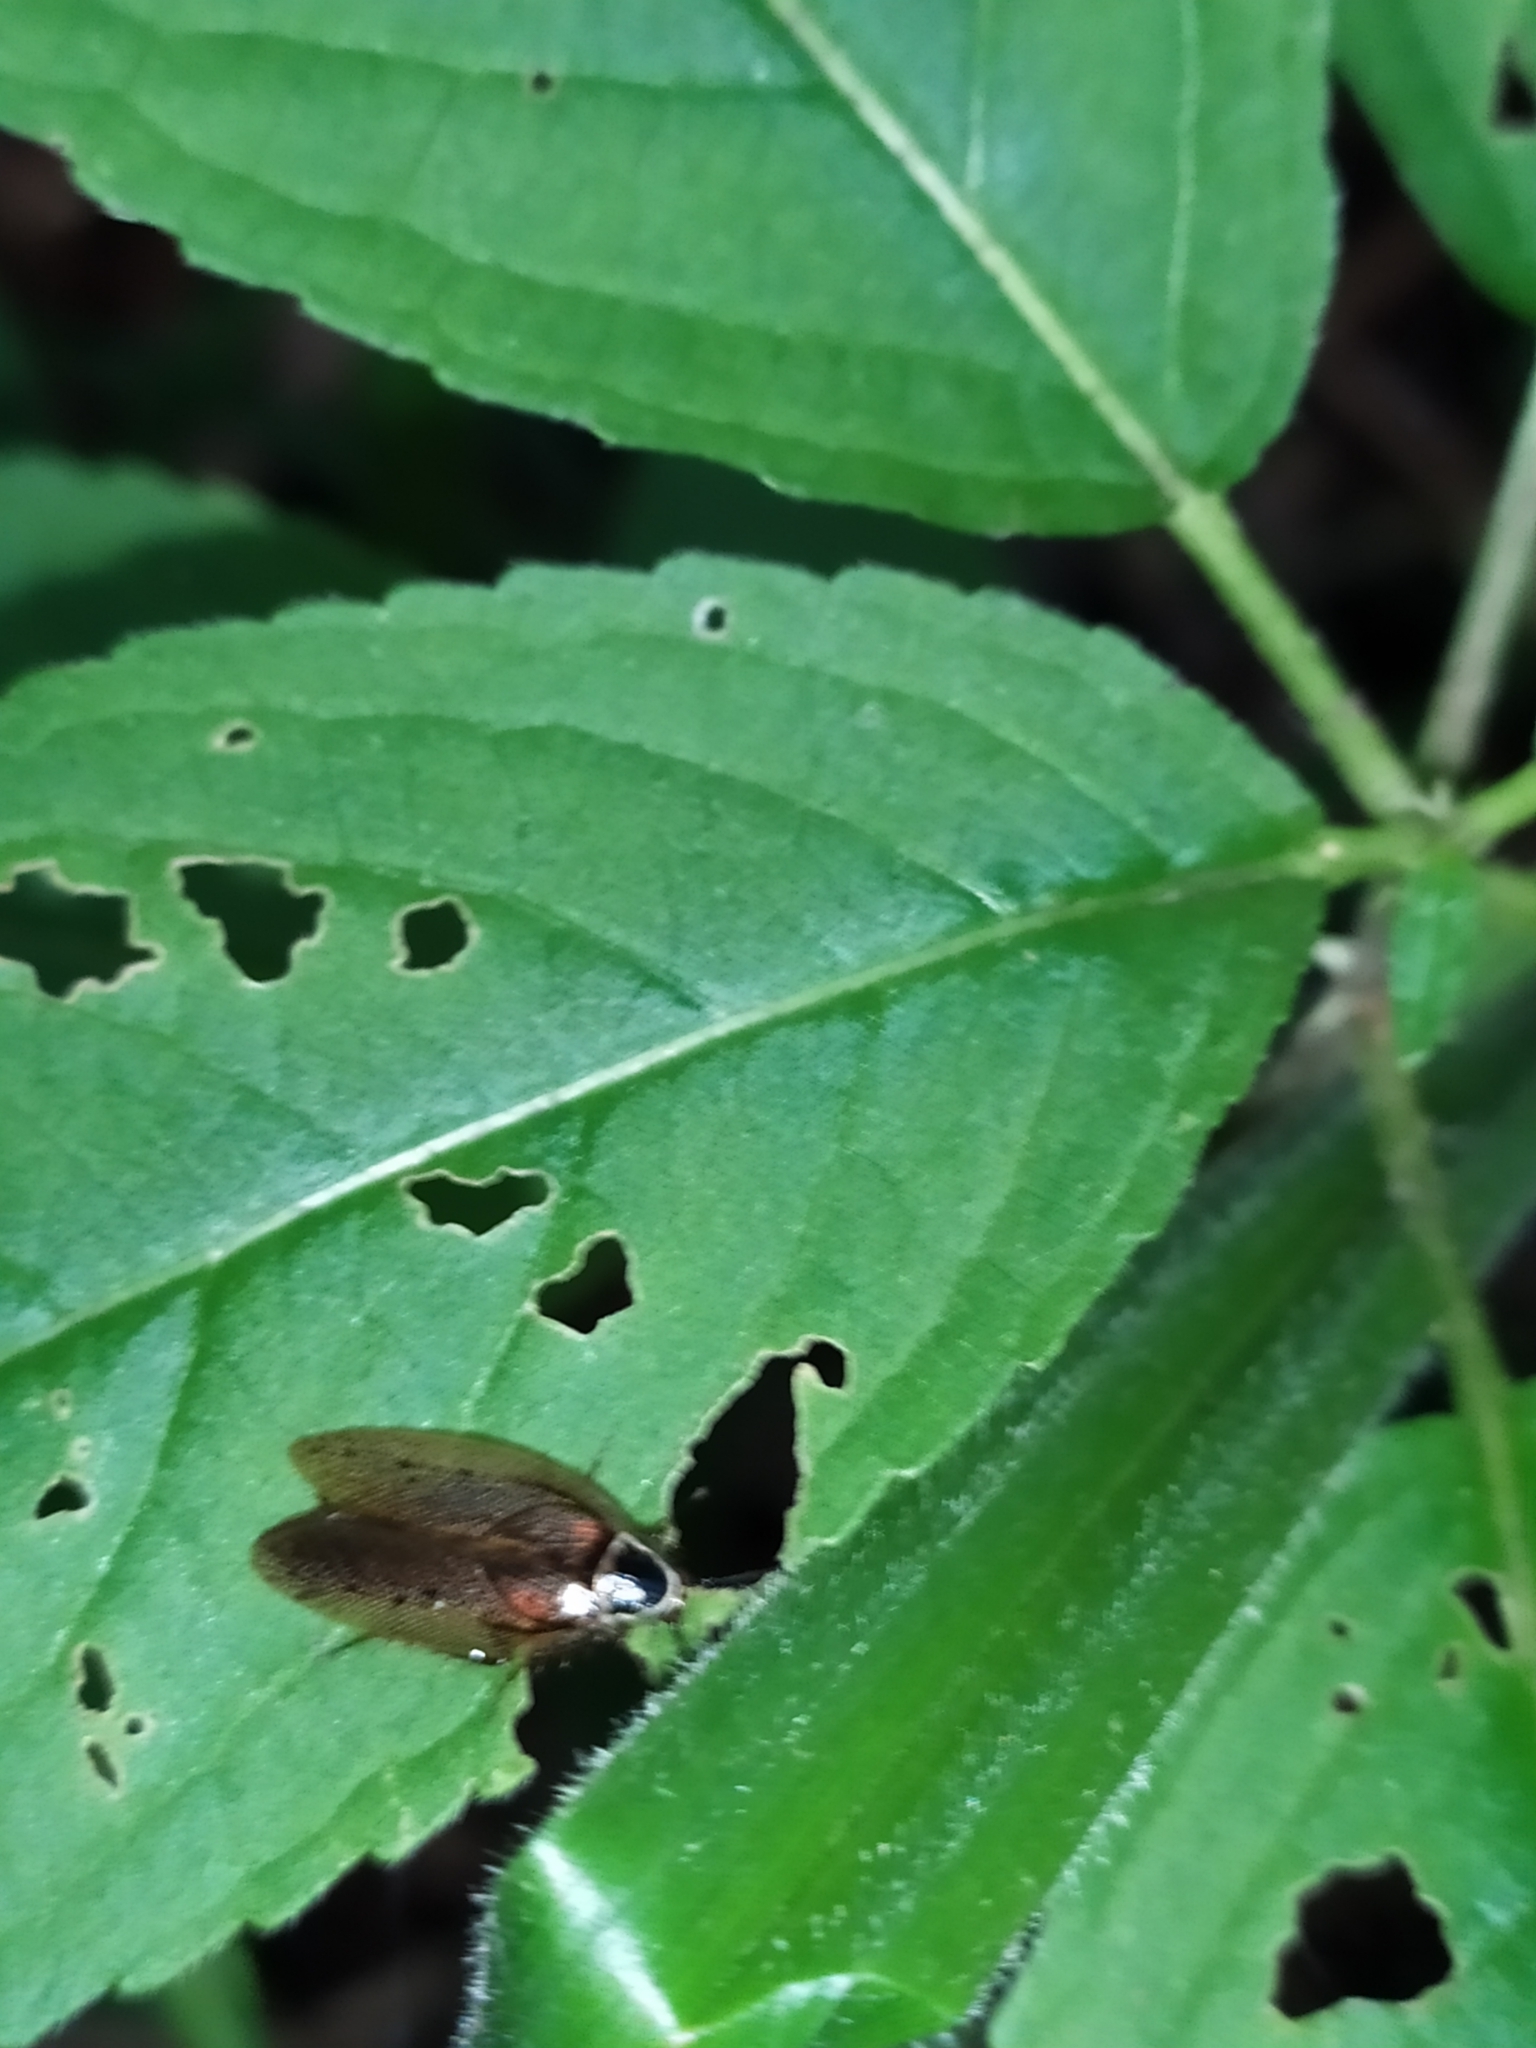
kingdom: Animalia
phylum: Arthropoda
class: Insecta
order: Blattodea
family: Ectobiidae
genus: Ectobius
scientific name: Ectobius sylvestris
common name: Forest cockroach
